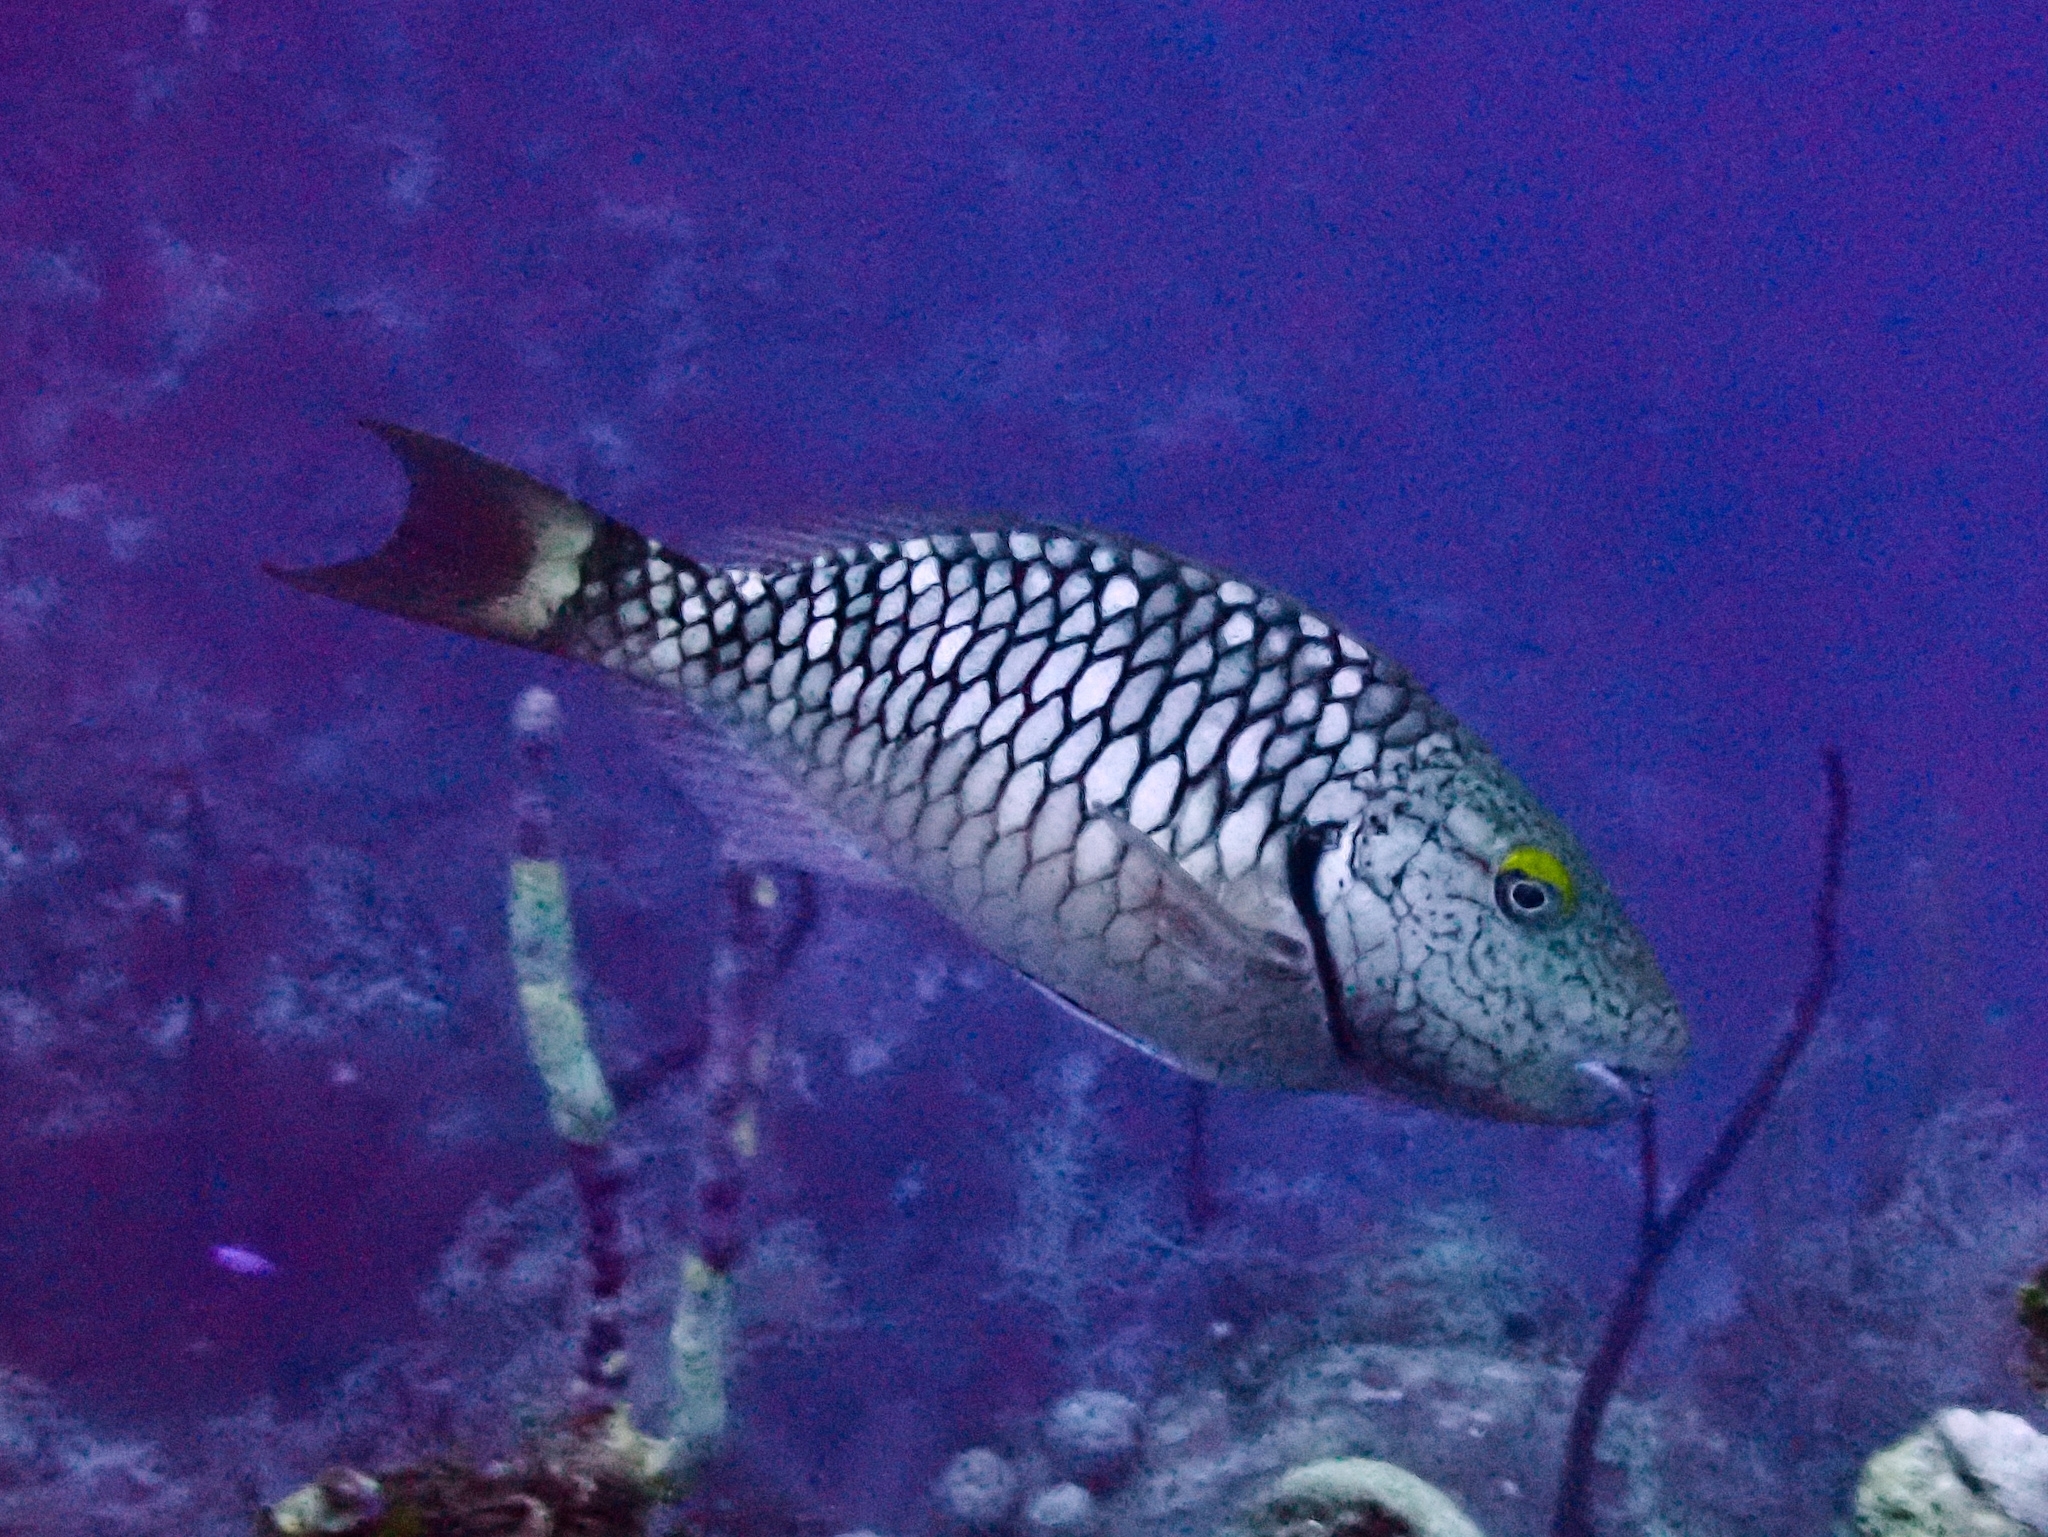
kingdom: Animalia
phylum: Chordata
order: Perciformes
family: Scaridae
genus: Sparisoma
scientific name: Sparisoma viride
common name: Stoplight parrotfish
